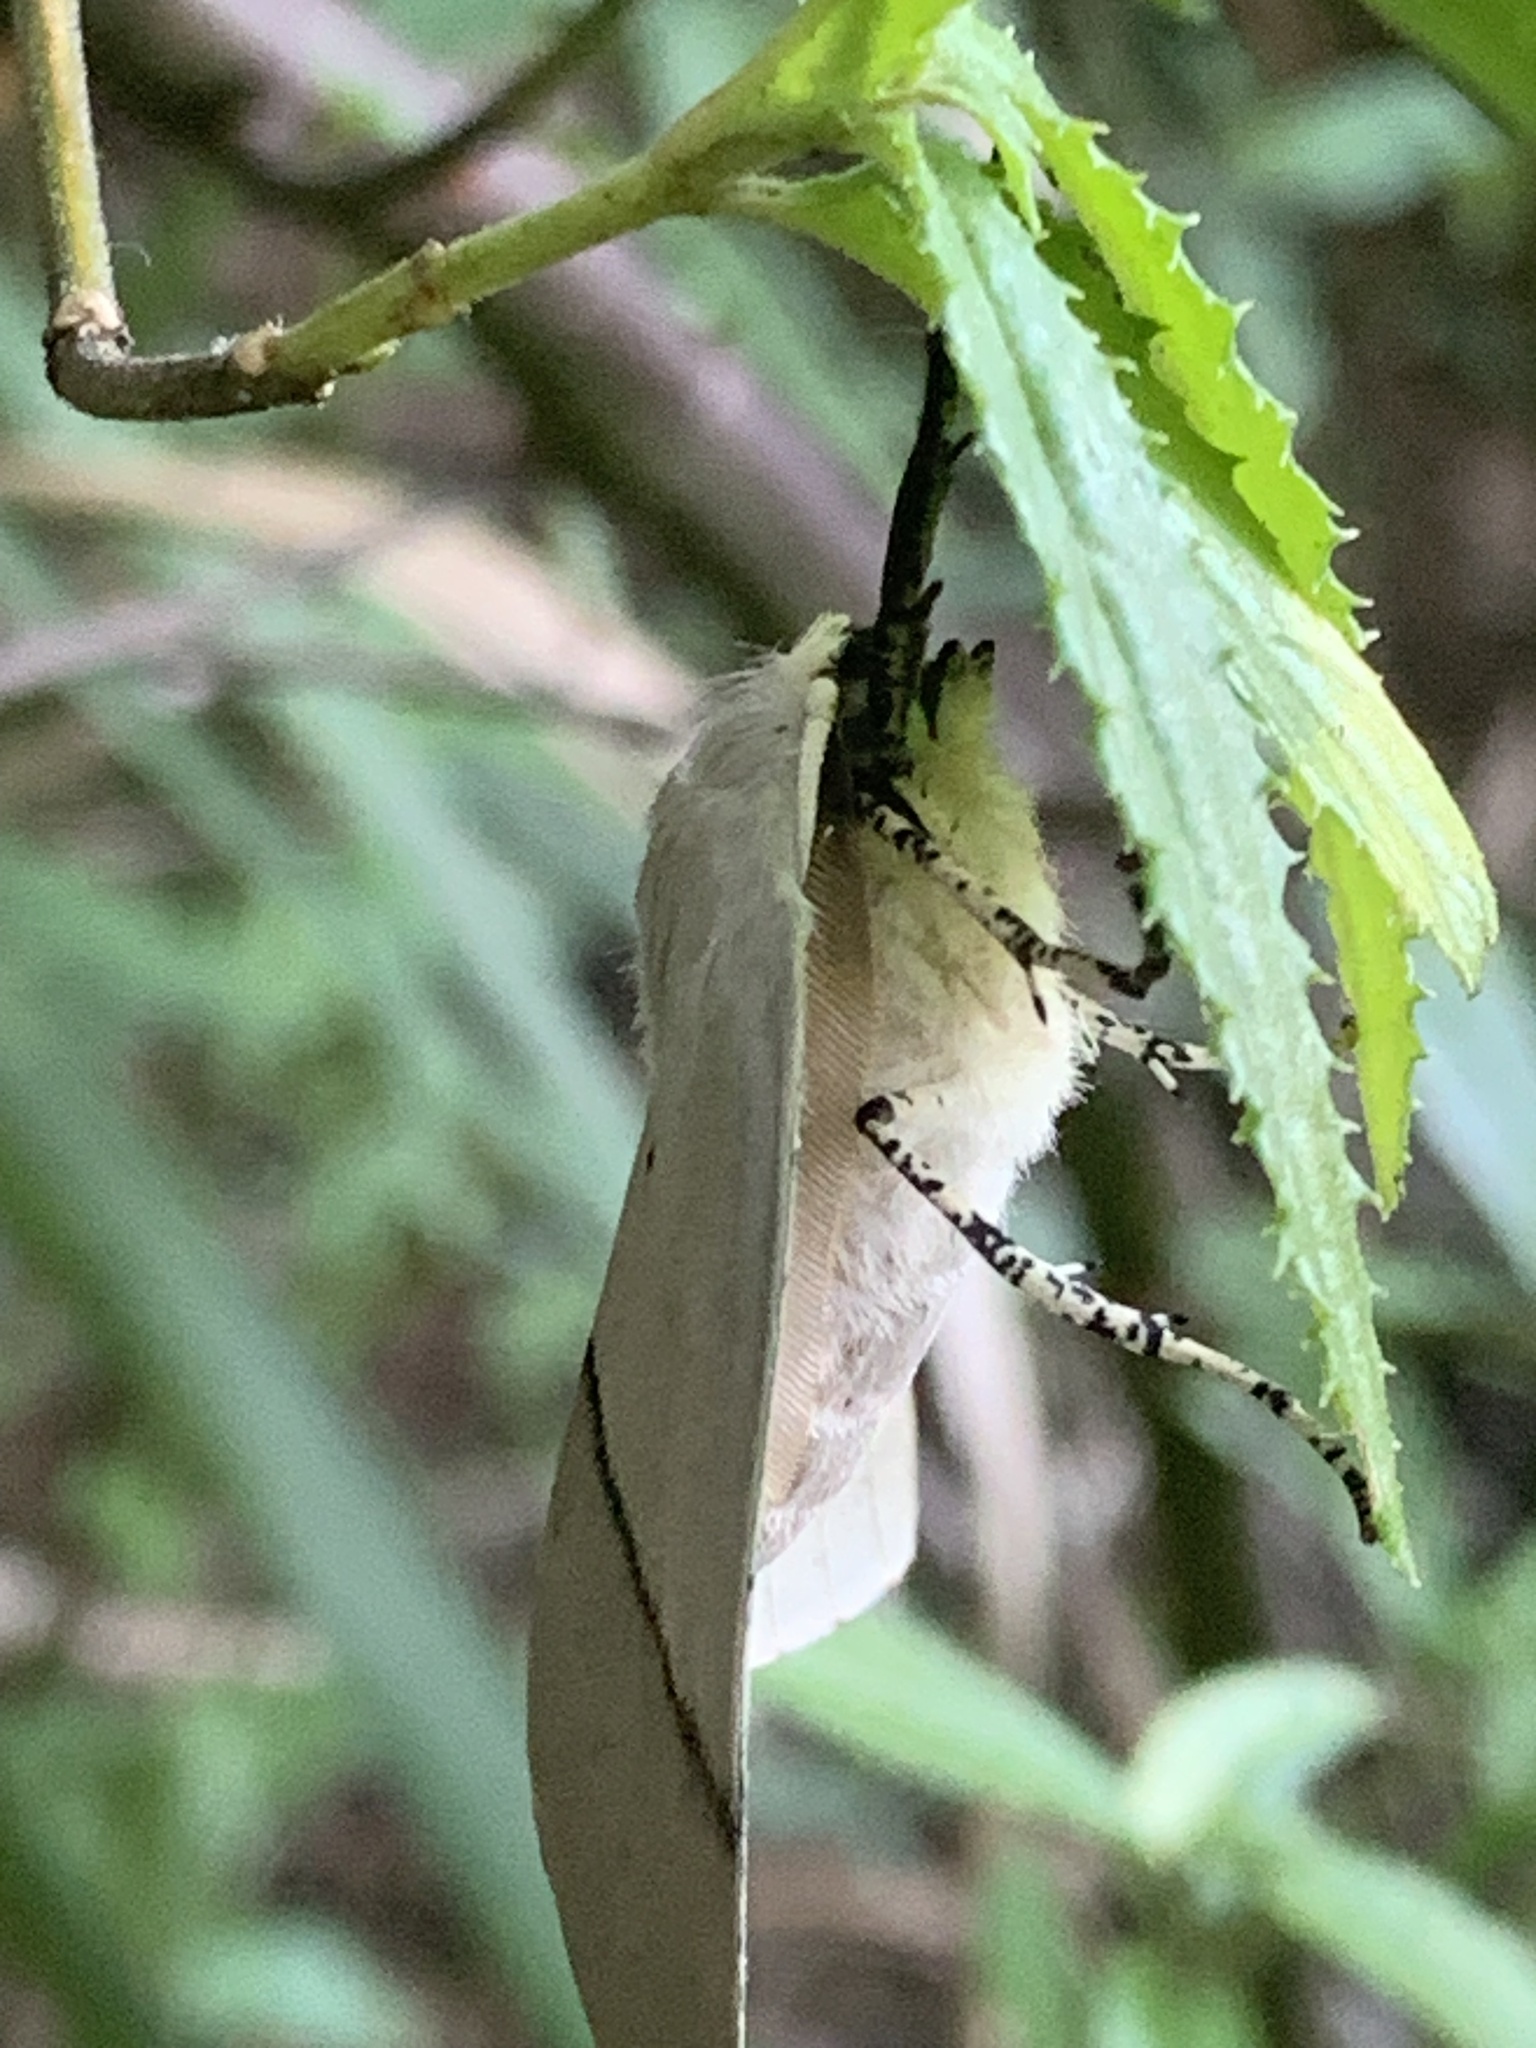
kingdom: Animalia
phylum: Arthropoda
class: Insecta
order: Lepidoptera
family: Geometridae
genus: Gastrophora
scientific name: Gastrophora henricaria
